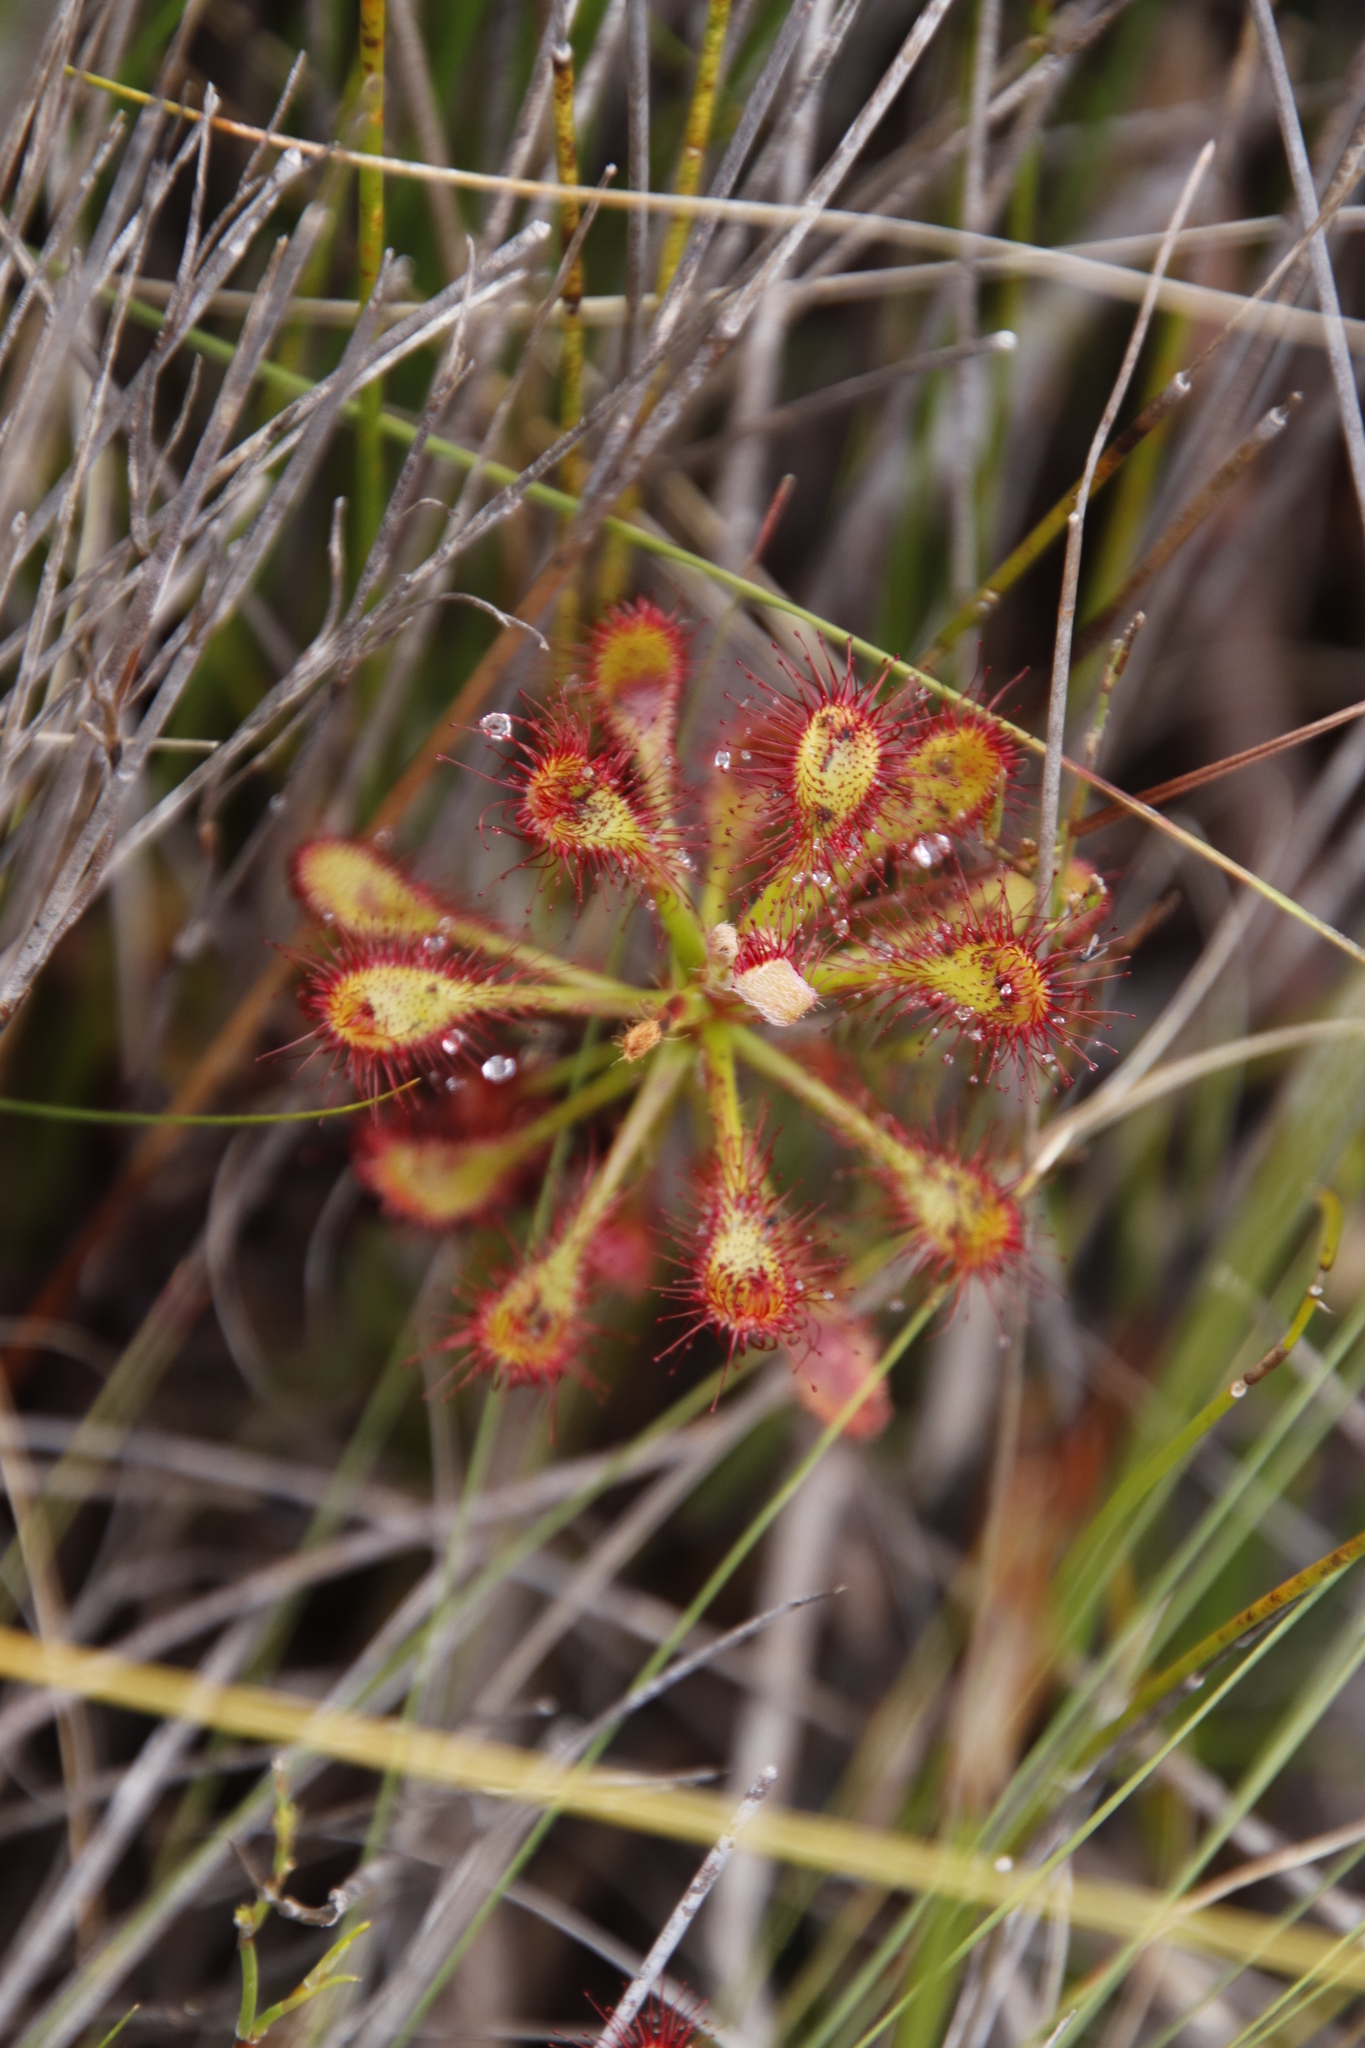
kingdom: Plantae
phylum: Tracheophyta
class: Magnoliopsida
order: Caryophyllales
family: Droseraceae
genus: Drosera
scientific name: Drosera glabripes
